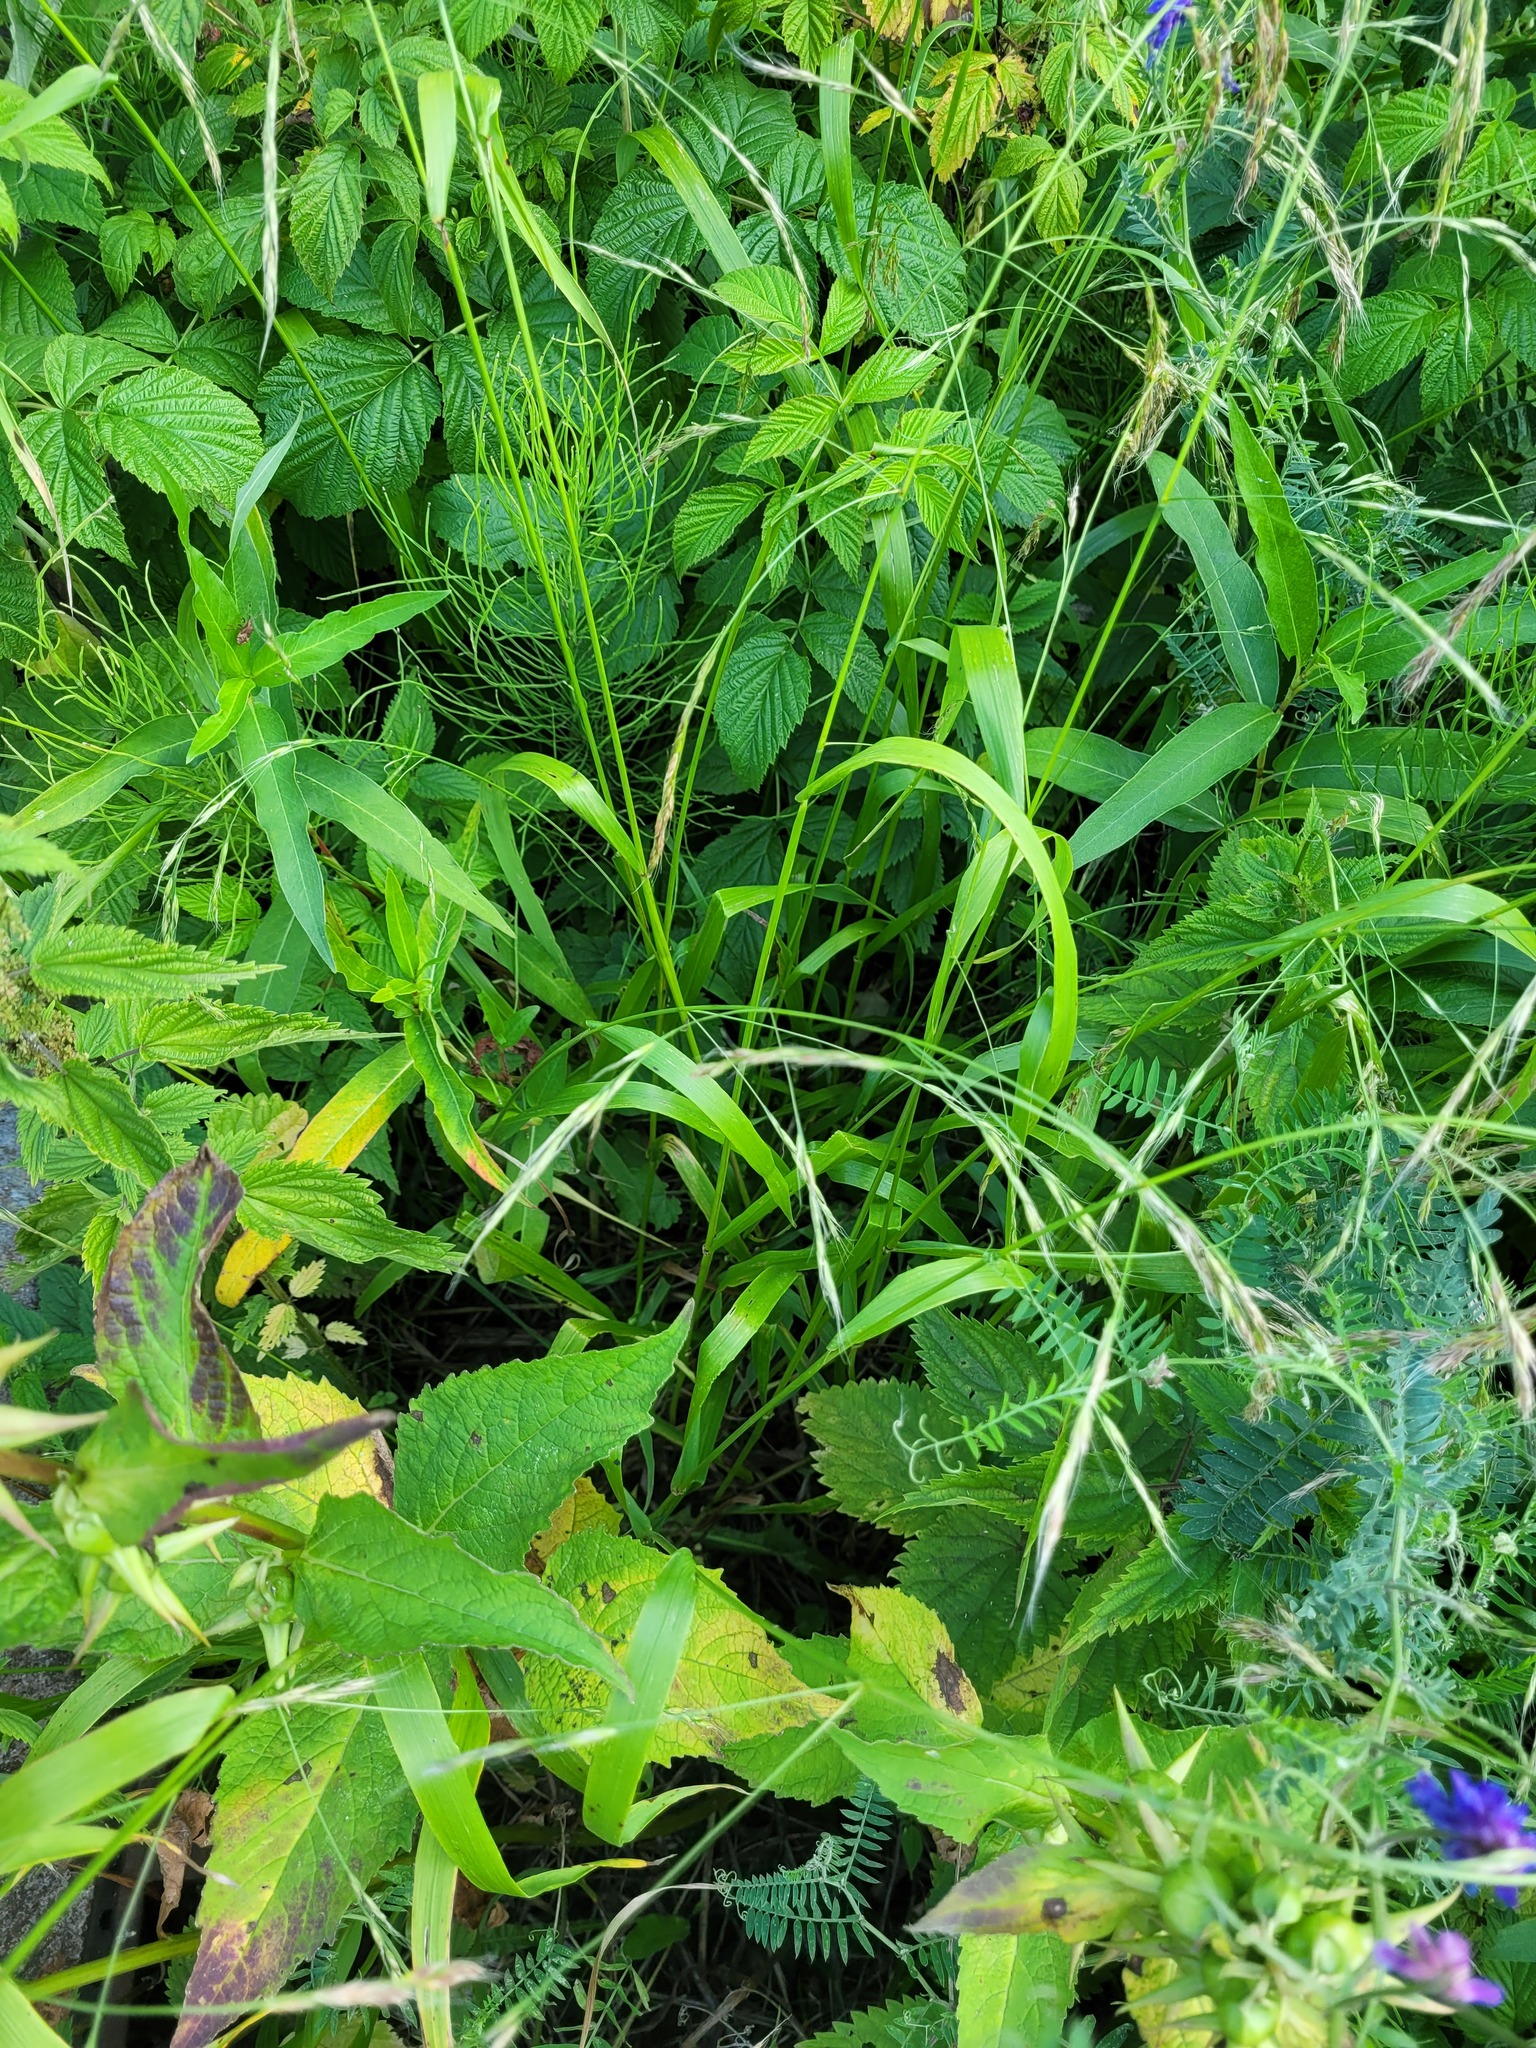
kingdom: Plantae
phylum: Tracheophyta
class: Liliopsida
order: Poales
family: Poaceae
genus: Lolium
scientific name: Lolium giganteum
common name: Giant fescue
